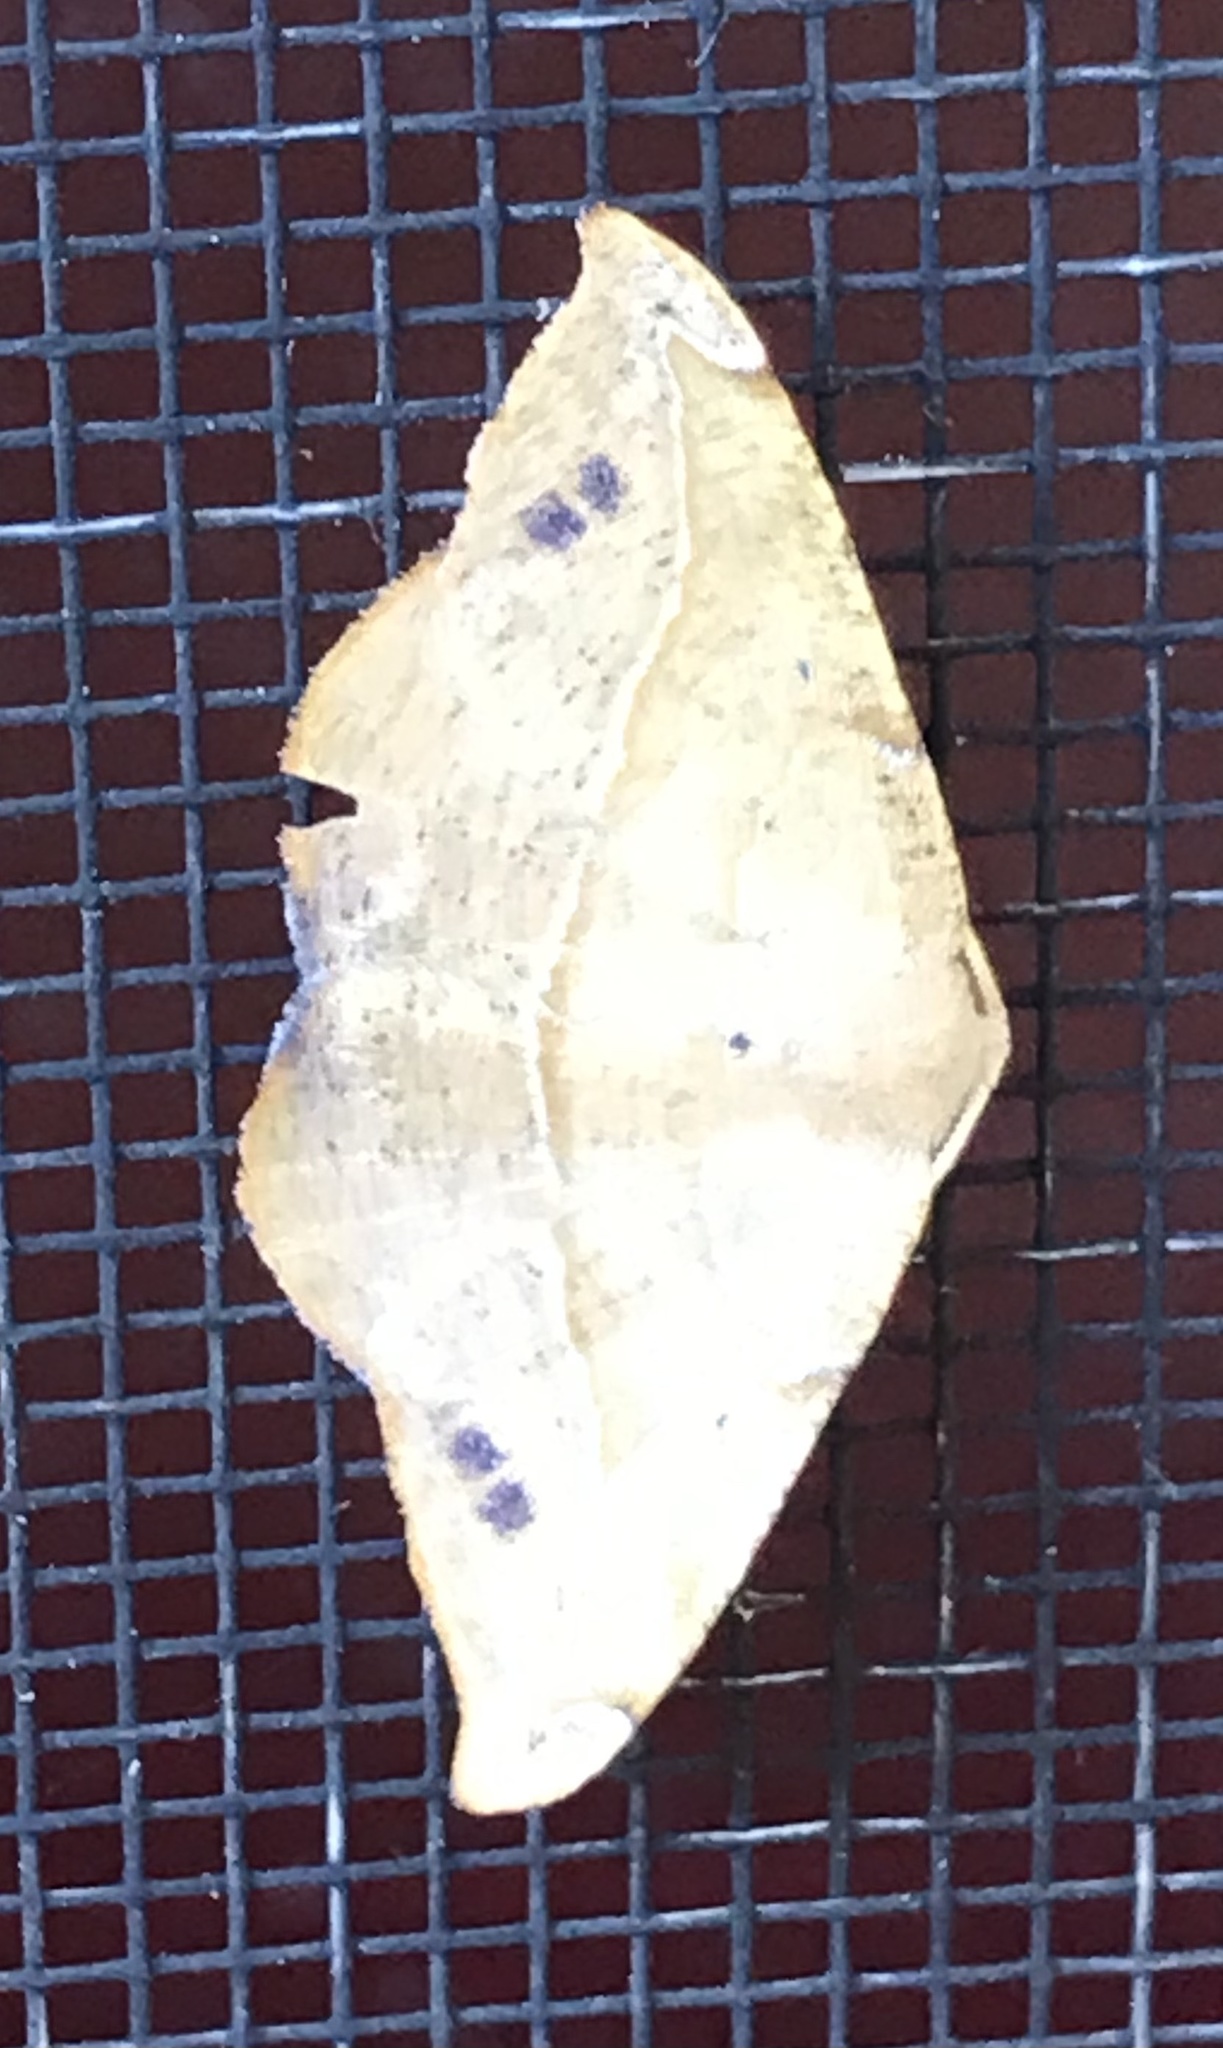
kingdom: Animalia
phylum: Arthropoda
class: Insecta
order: Lepidoptera
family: Geometridae
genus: Patalene
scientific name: Patalene olyzonaria
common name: Juniper geometer moth
